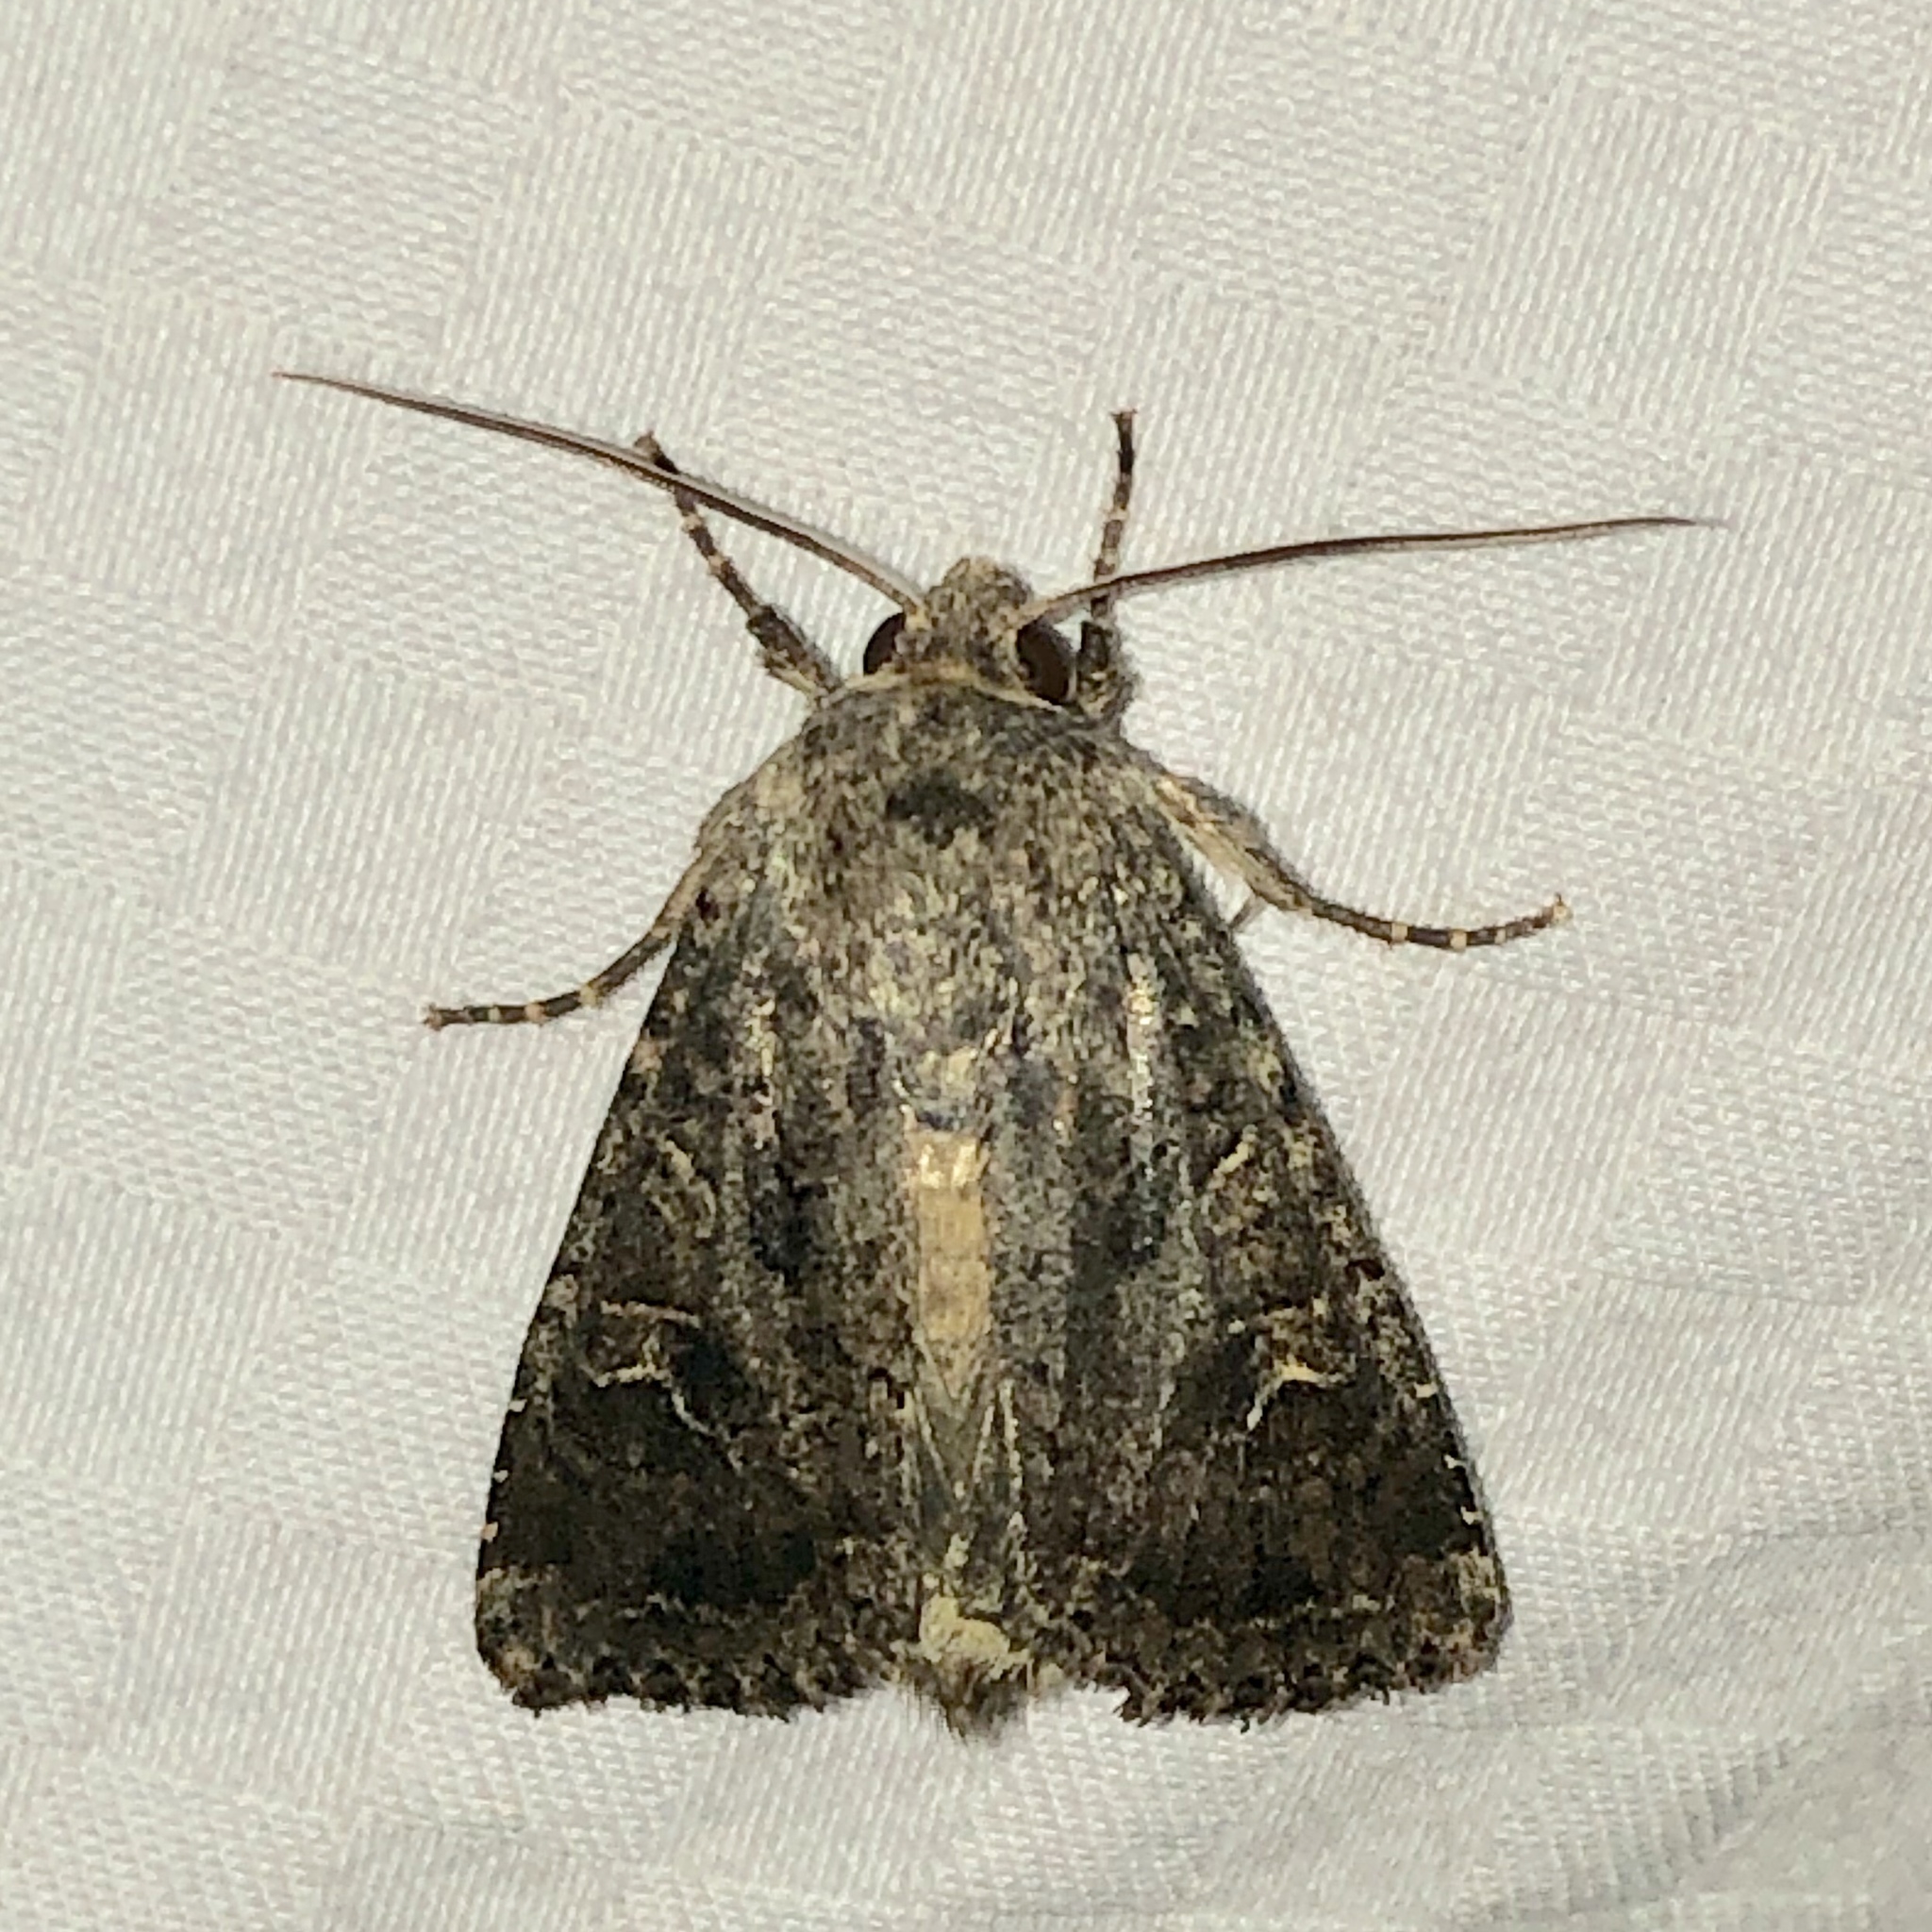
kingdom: Animalia
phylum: Arthropoda
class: Insecta
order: Lepidoptera
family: Noctuidae
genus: Apamea
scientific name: Apamea devastator
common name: Glassy cutworm
